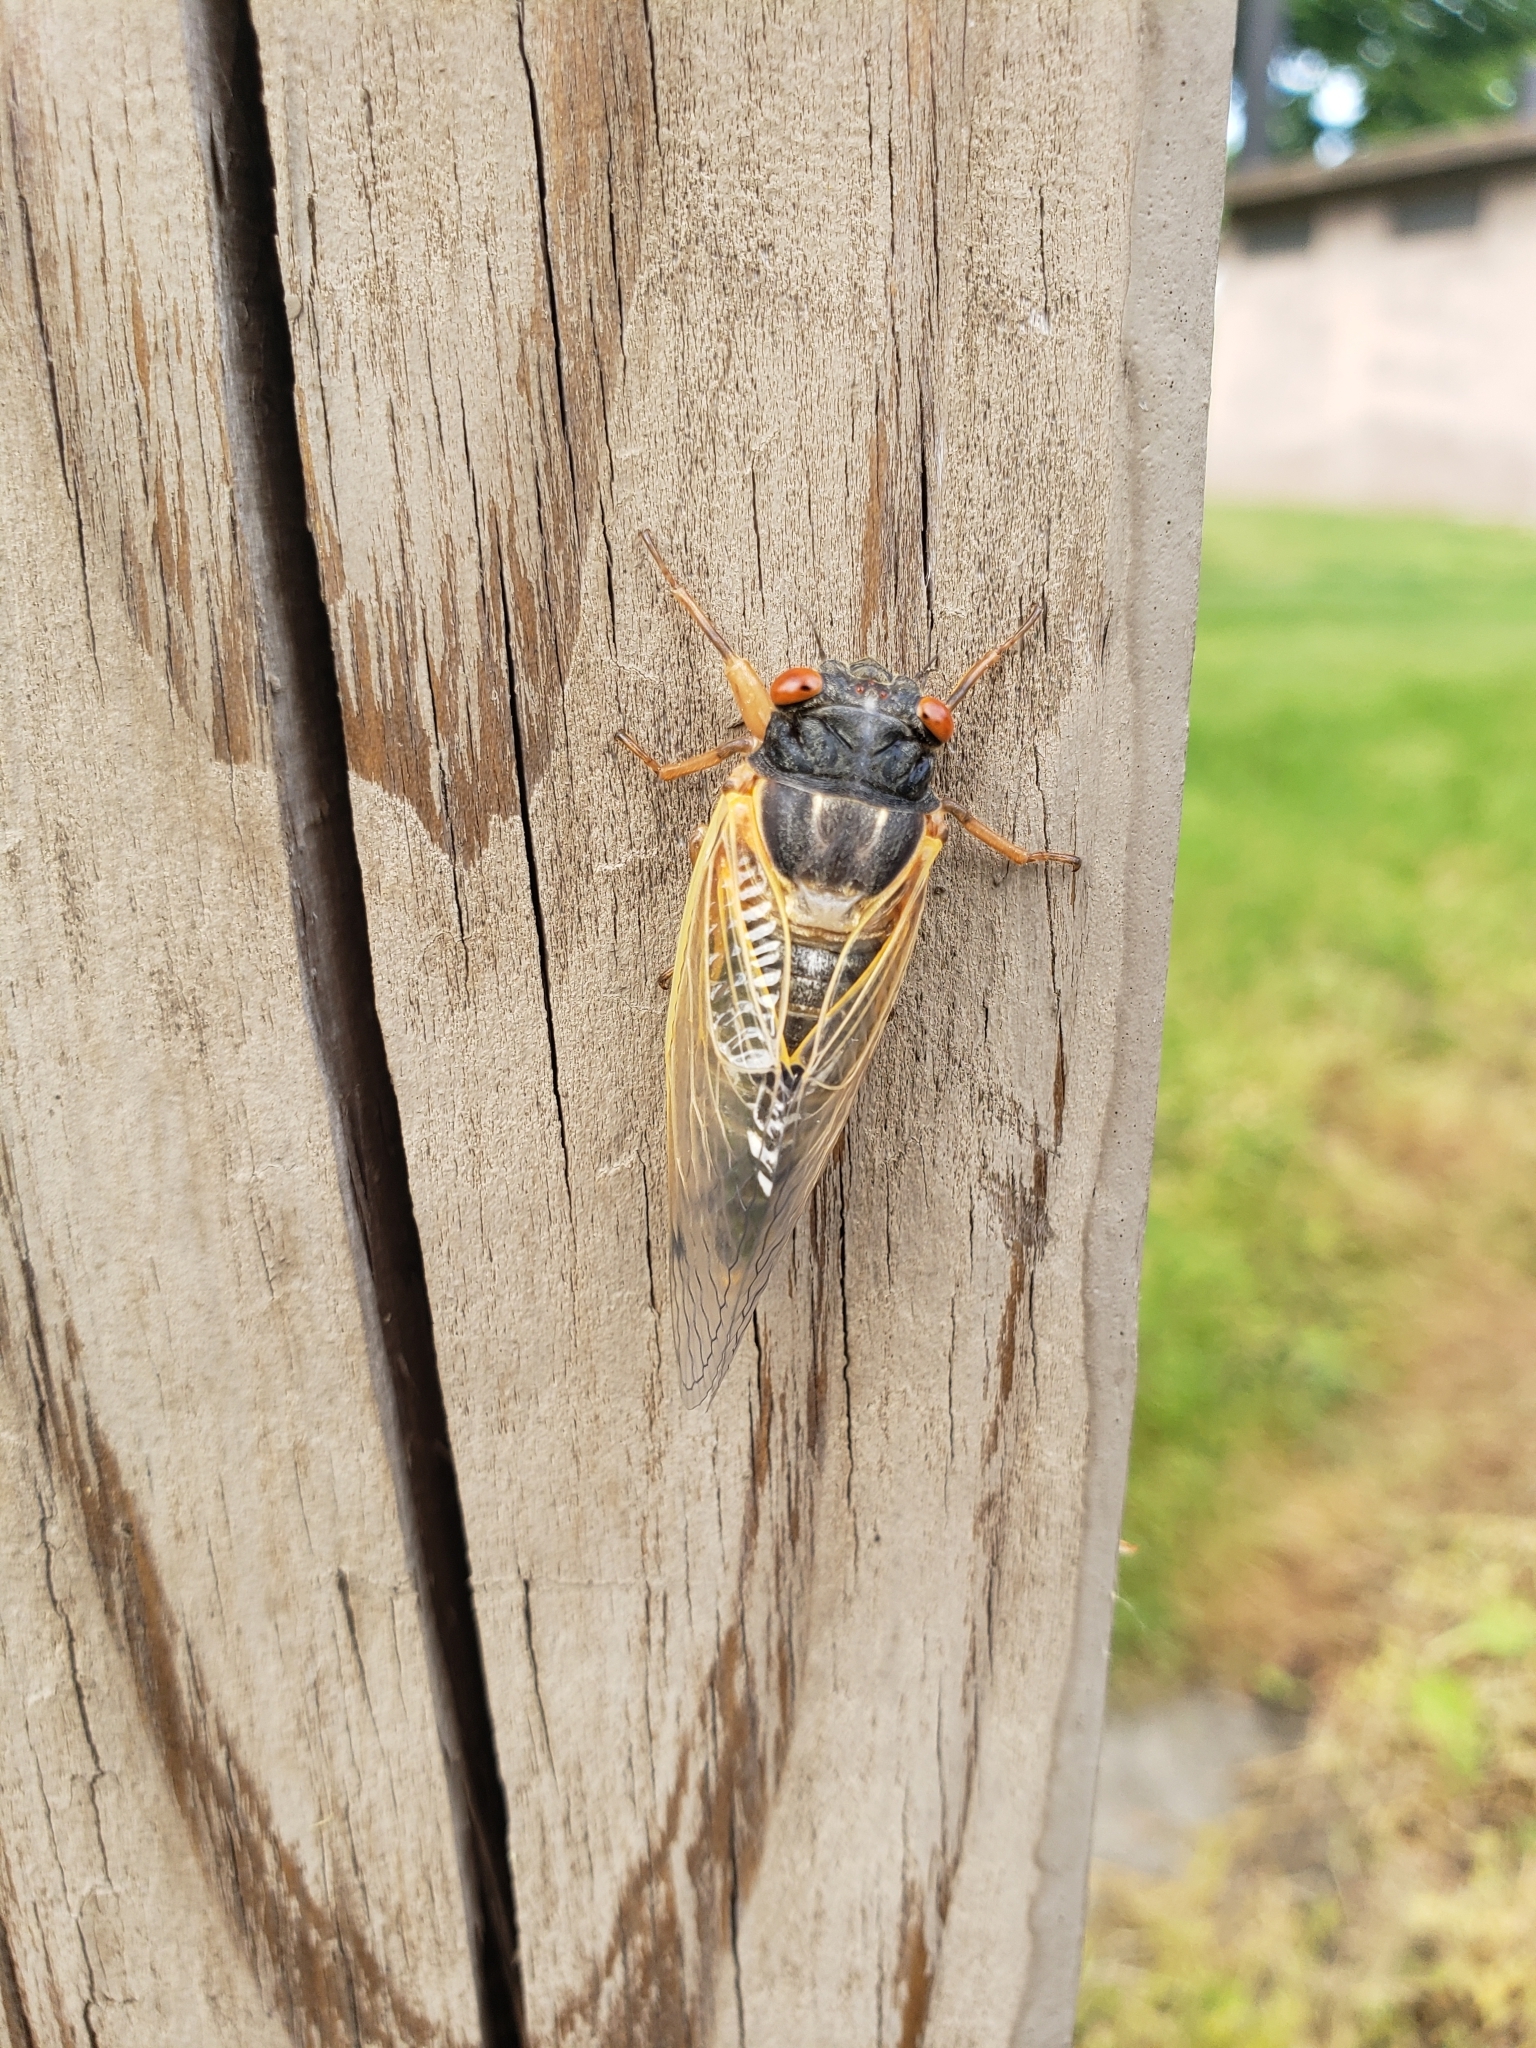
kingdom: Animalia
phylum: Arthropoda
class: Insecta
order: Hemiptera
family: Cicadidae
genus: Magicicada
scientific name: Magicicada
